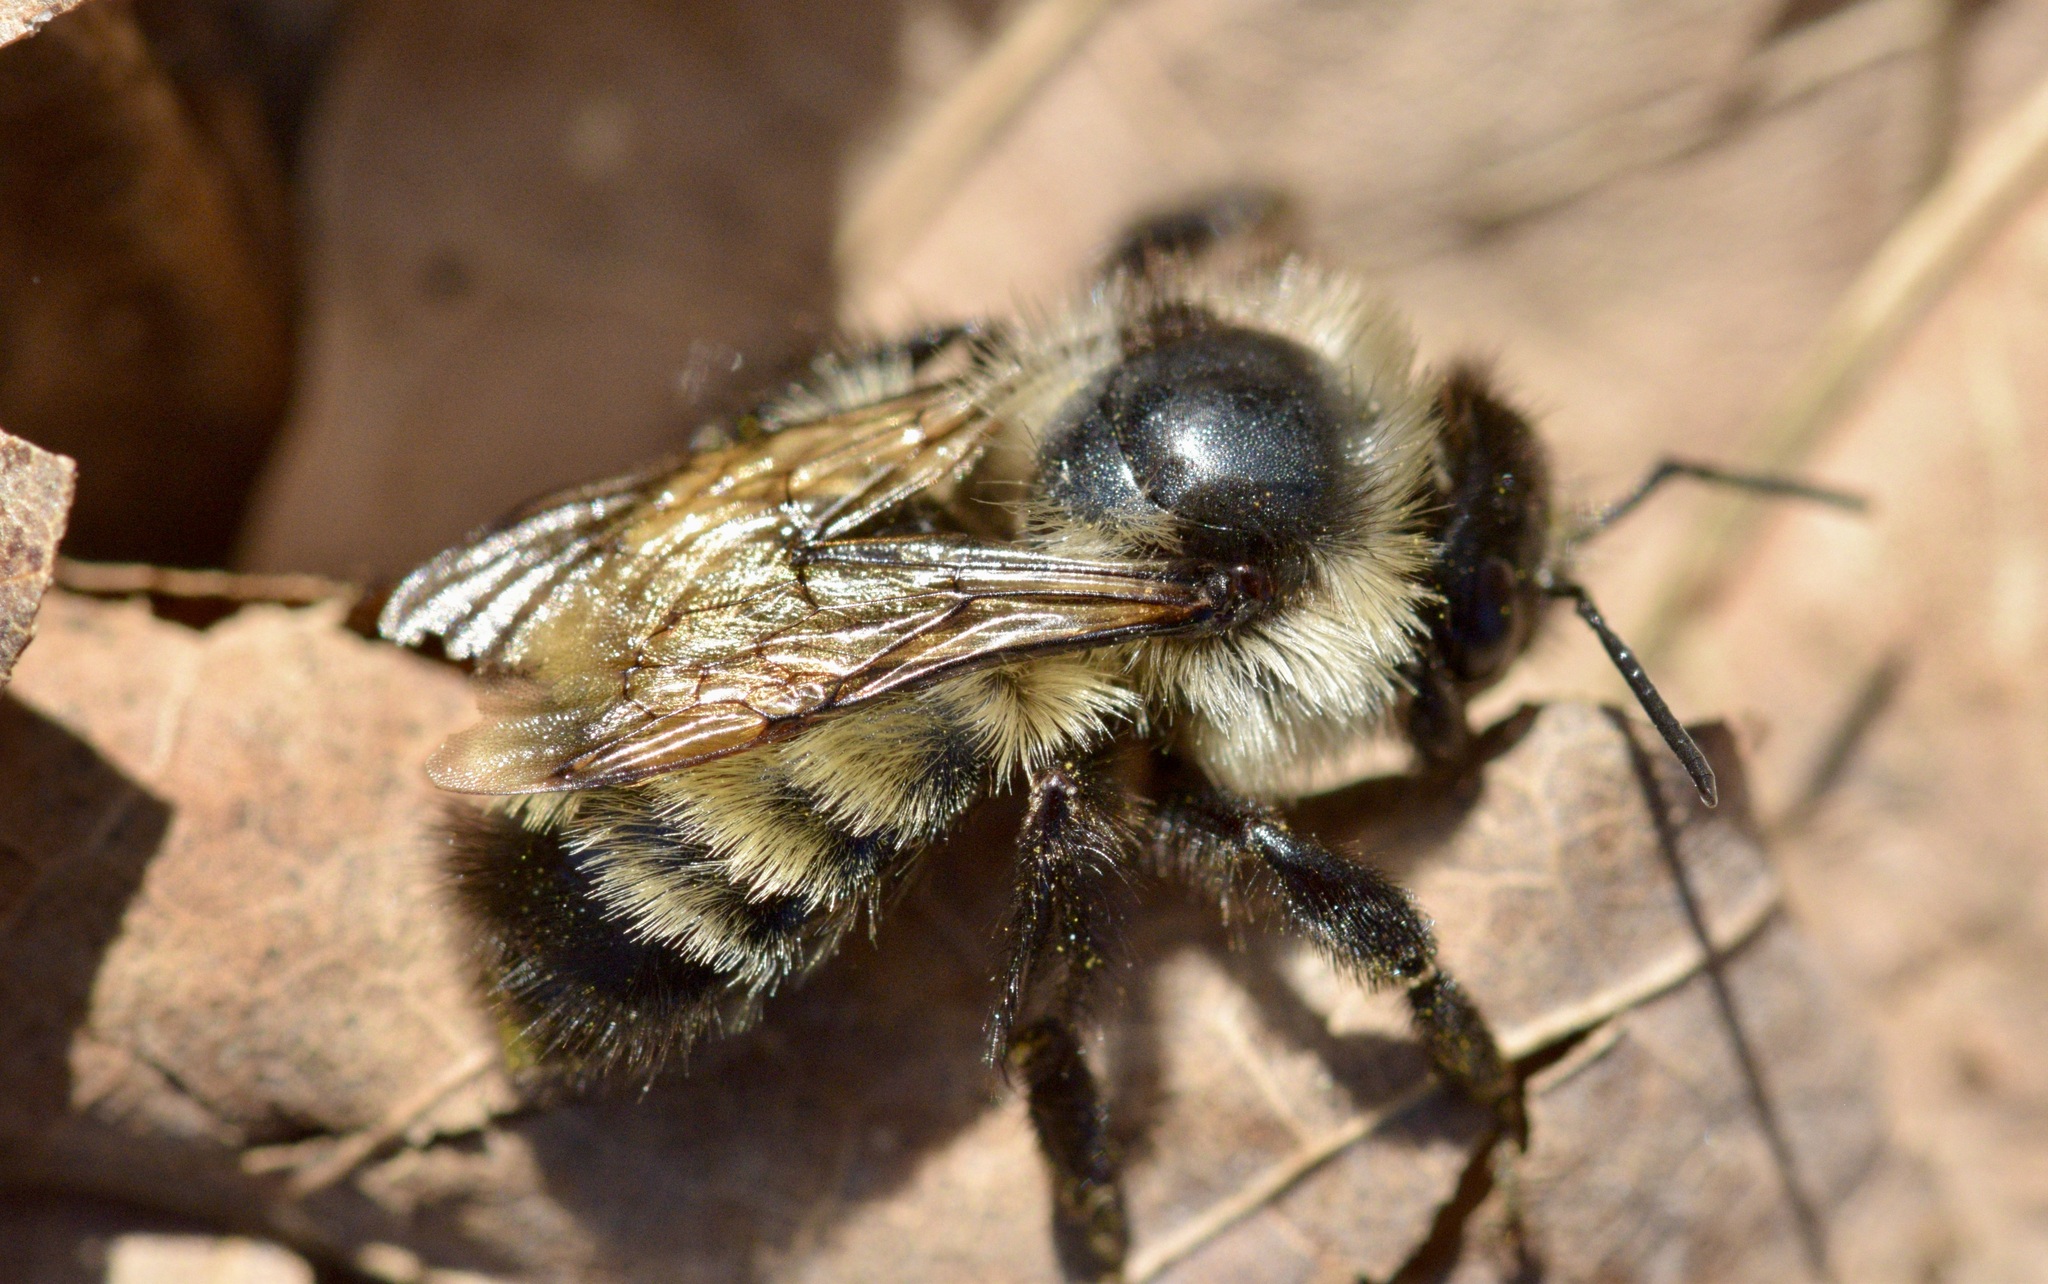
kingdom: Animalia
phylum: Arthropoda
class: Insecta
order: Hymenoptera
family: Apidae
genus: Bombus
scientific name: Bombus ternarius
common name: Tri-colored bumble bee
